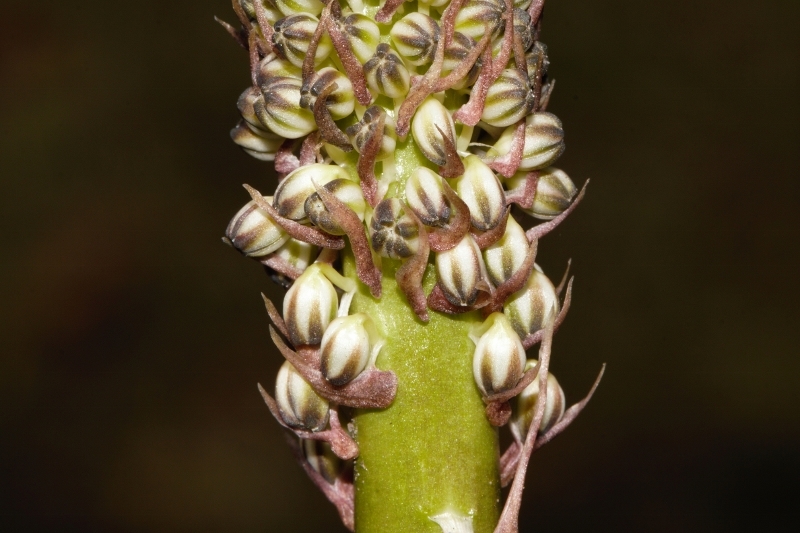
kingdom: Plantae
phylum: Tracheophyta
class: Liliopsida
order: Asparagales
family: Asparagaceae
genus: Drimia
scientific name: Drimia altissima
